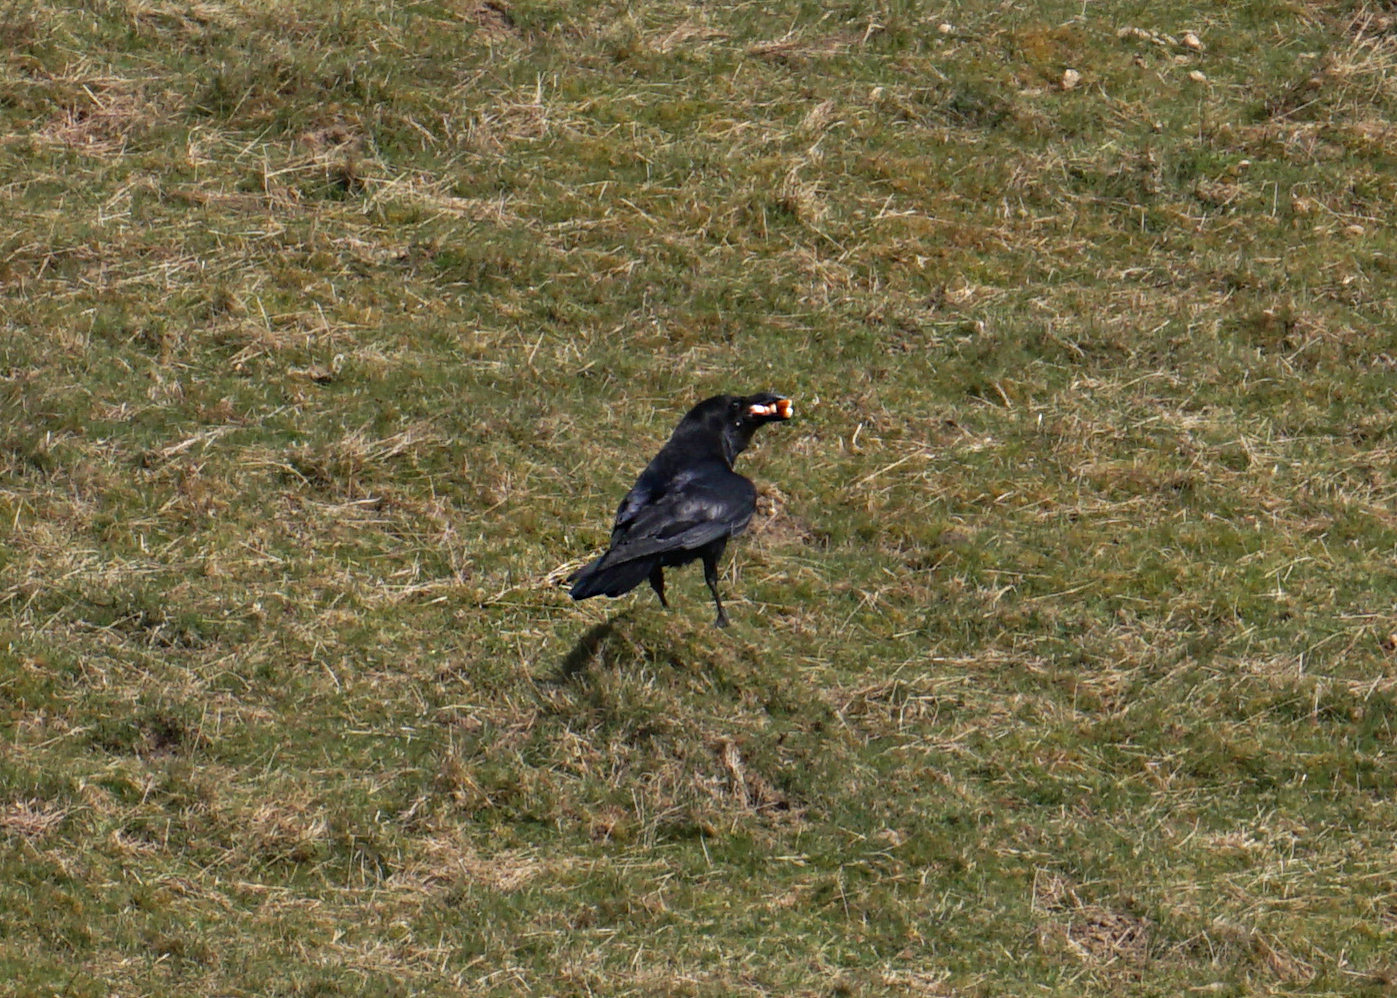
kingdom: Animalia
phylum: Chordata
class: Aves
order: Passeriformes
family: Corvidae
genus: Corvus
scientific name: Corvus corax
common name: Common raven
